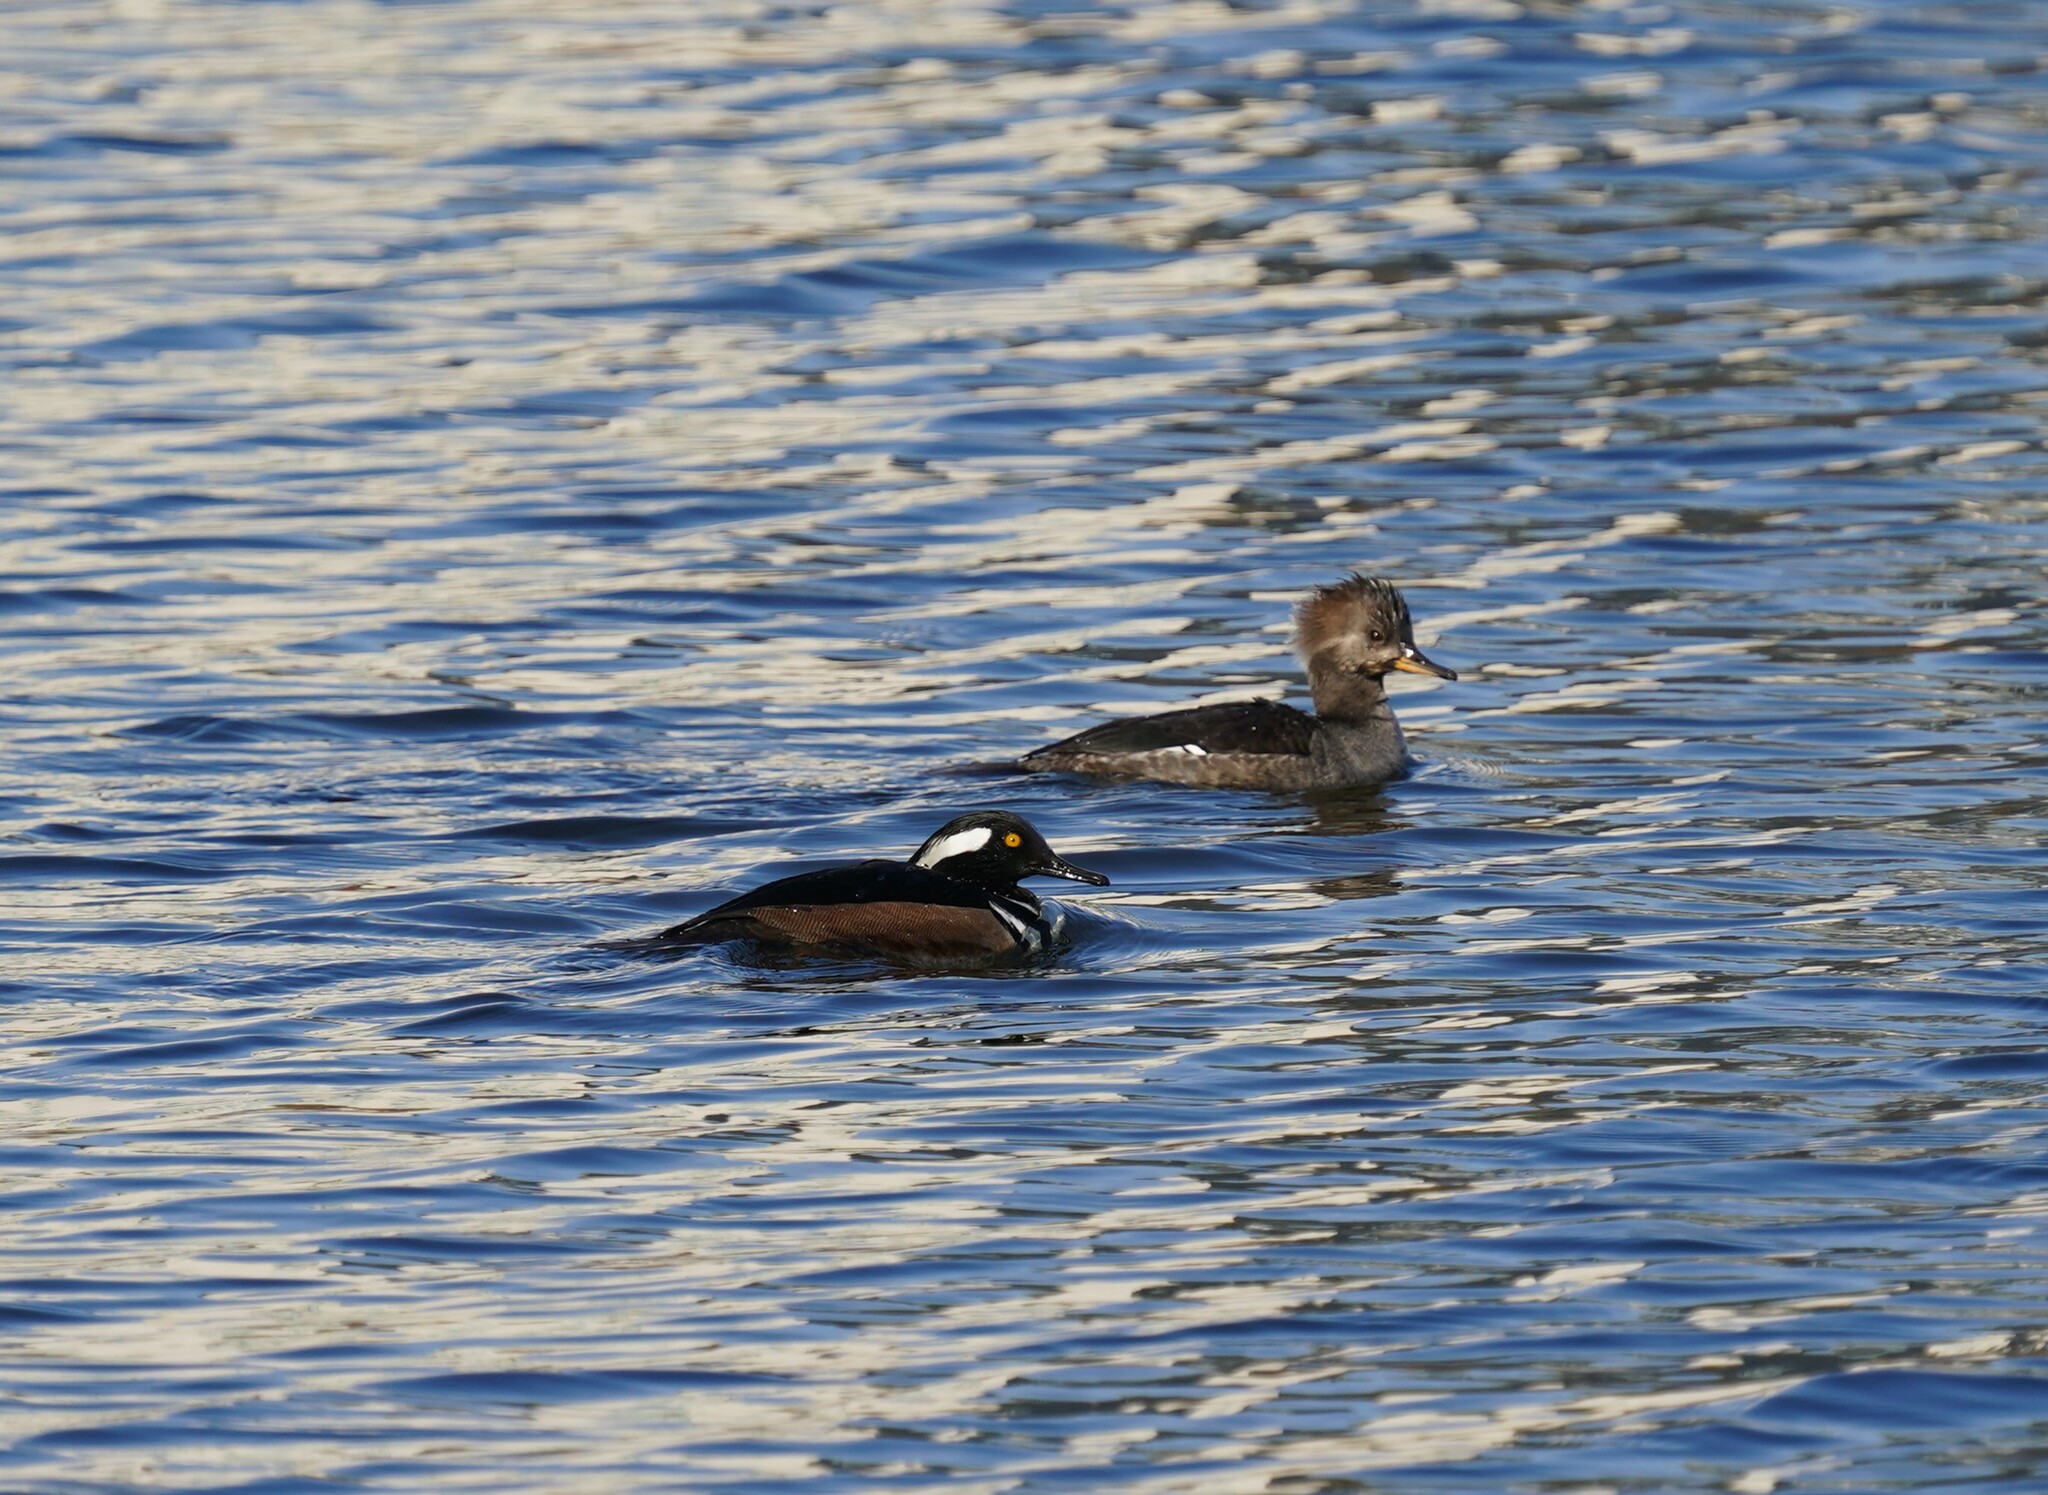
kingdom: Animalia
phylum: Chordata
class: Aves
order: Anseriformes
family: Anatidae
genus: Lophodytes
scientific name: Lophodytes cucullatus
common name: Hooded merganser
